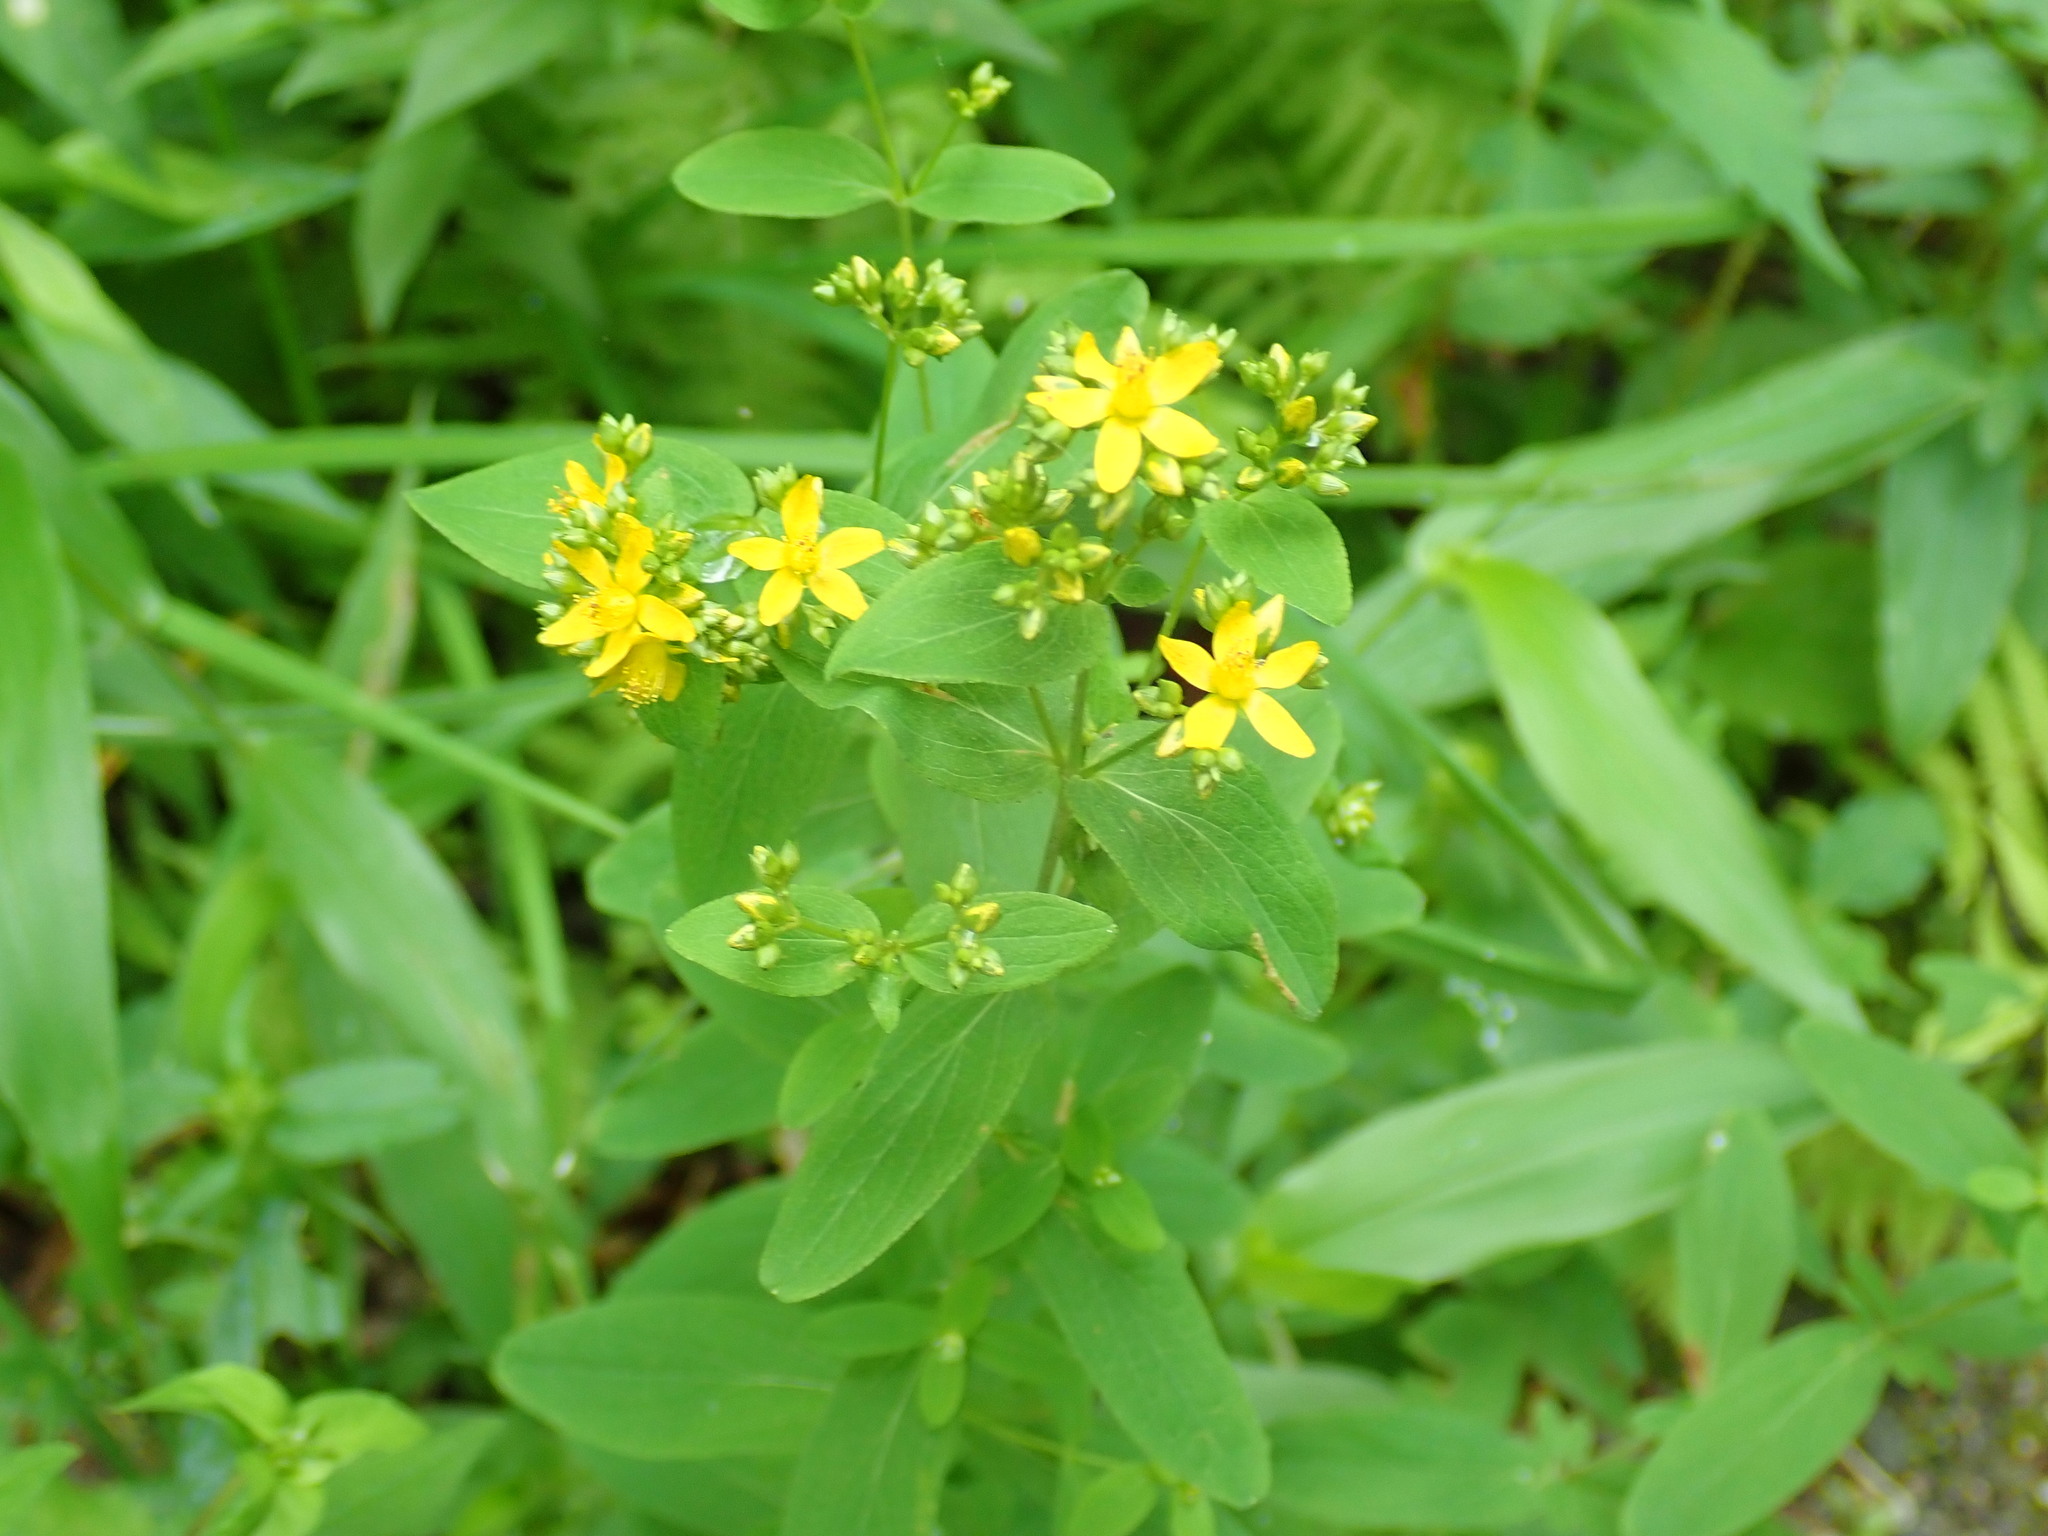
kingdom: Plantae
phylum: Tracheophyta
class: Magnoliopsida
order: Malpighiales
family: Hypericaceae
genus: Hypericum
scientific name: Hypericum punctatum
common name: Spotted st. john's-wort
